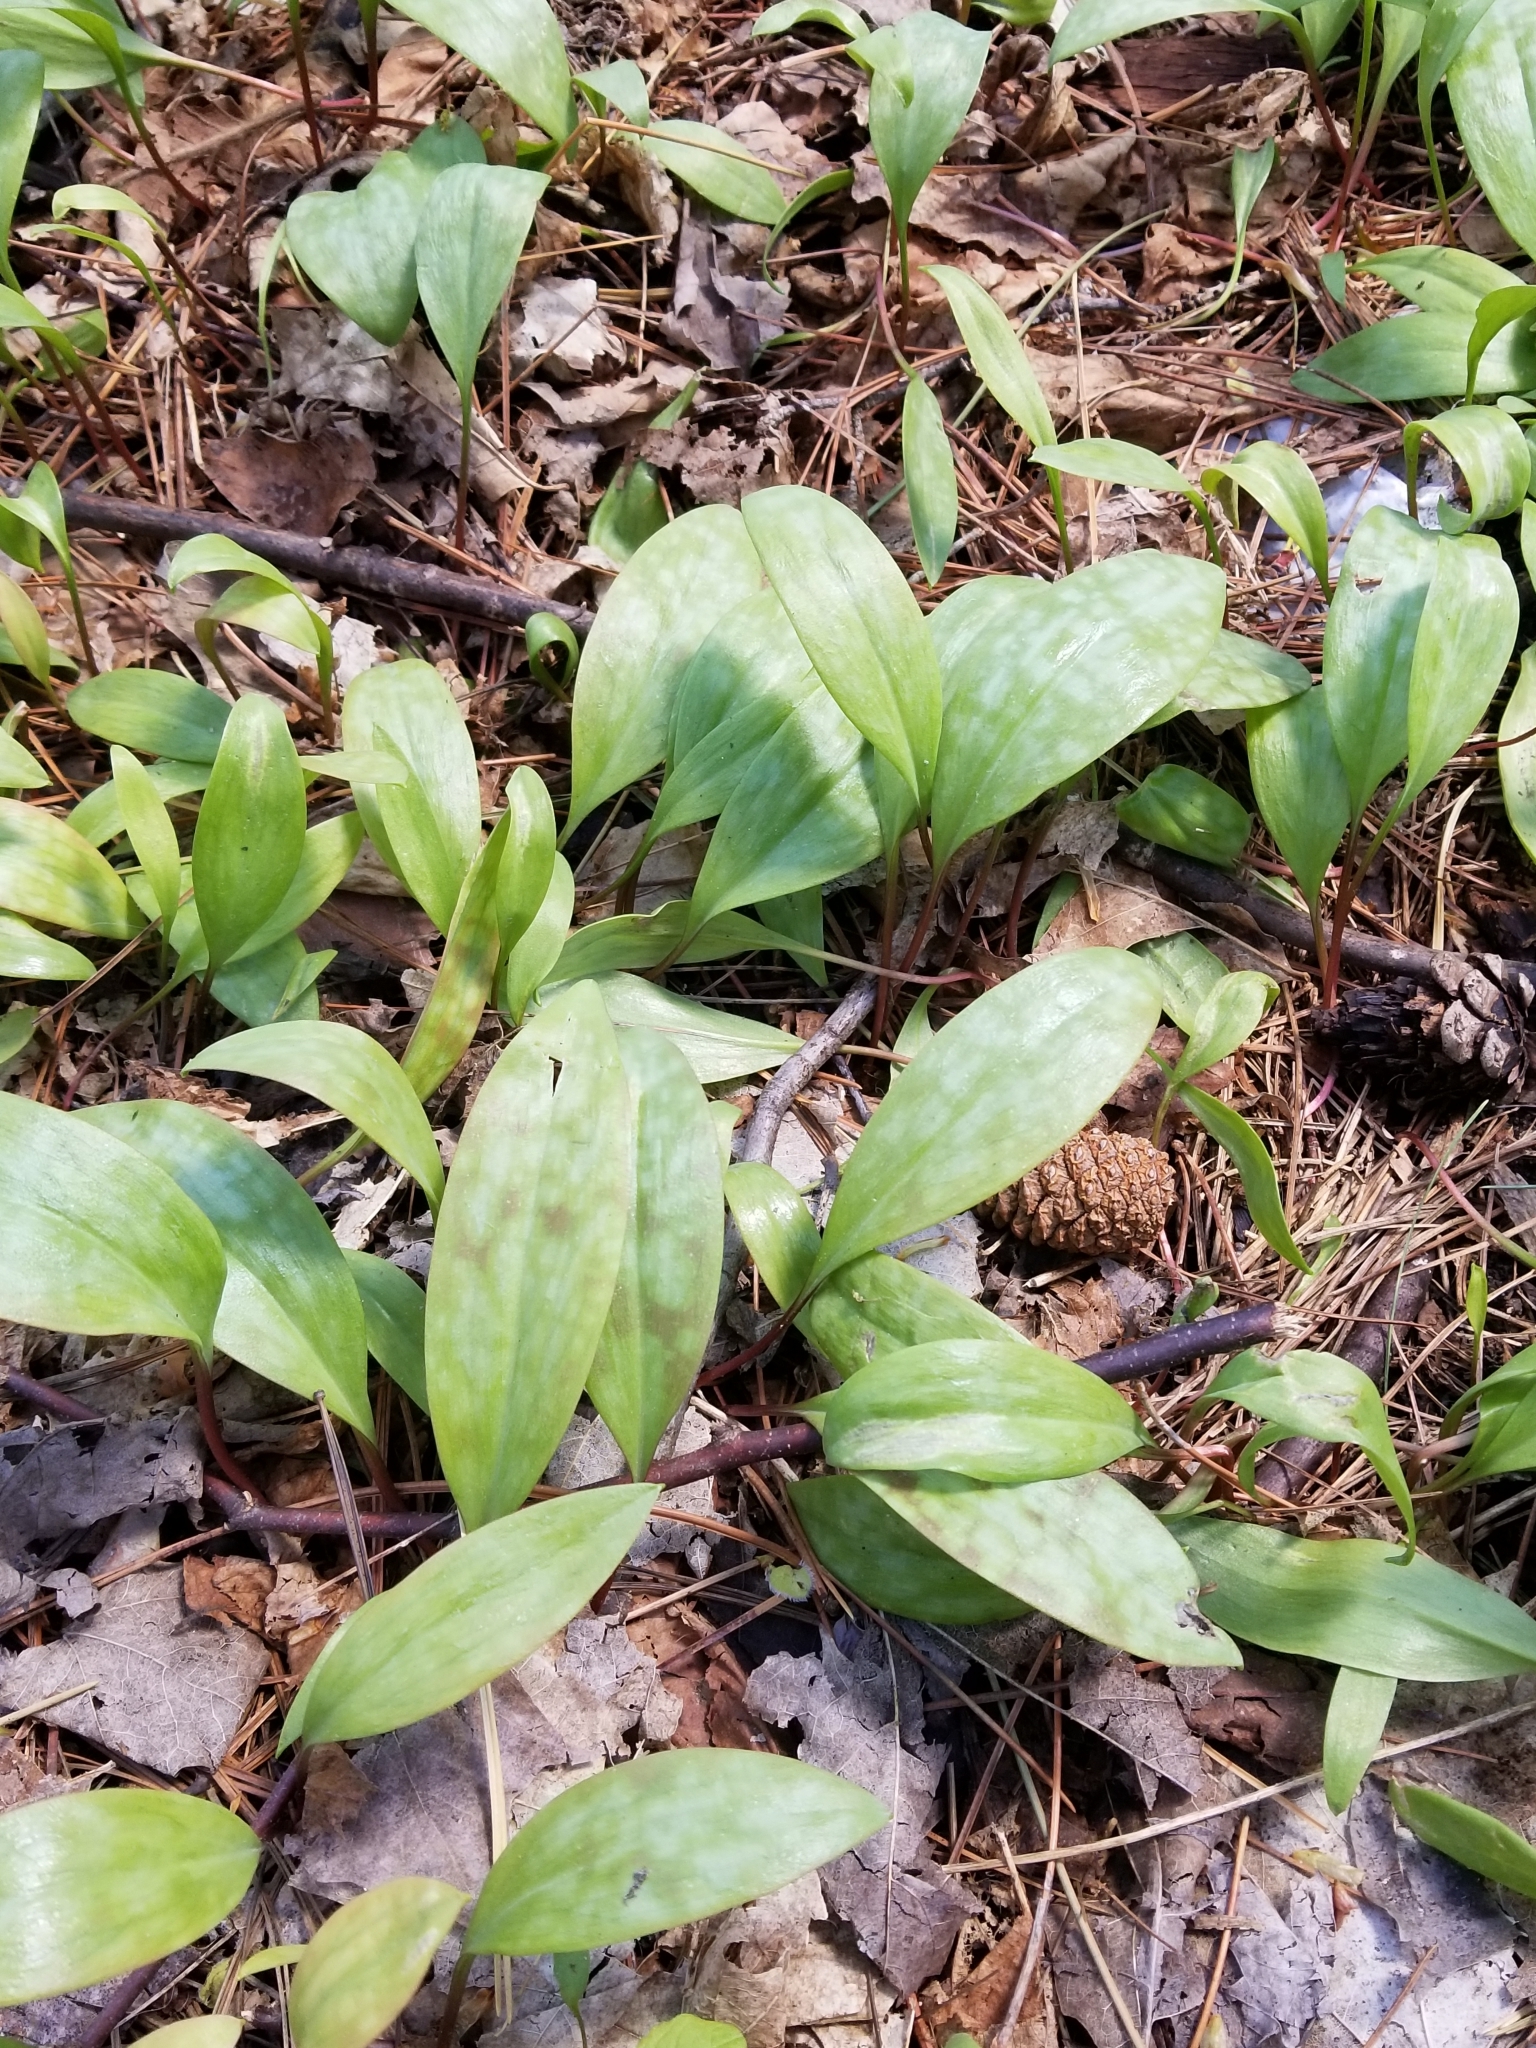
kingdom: Plantae
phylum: Tracheophyta
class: Liliopsida
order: Liliales
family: Liliaceae
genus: Erythronium
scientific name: Erythronium americanum
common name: Yellow adder's-tongue
